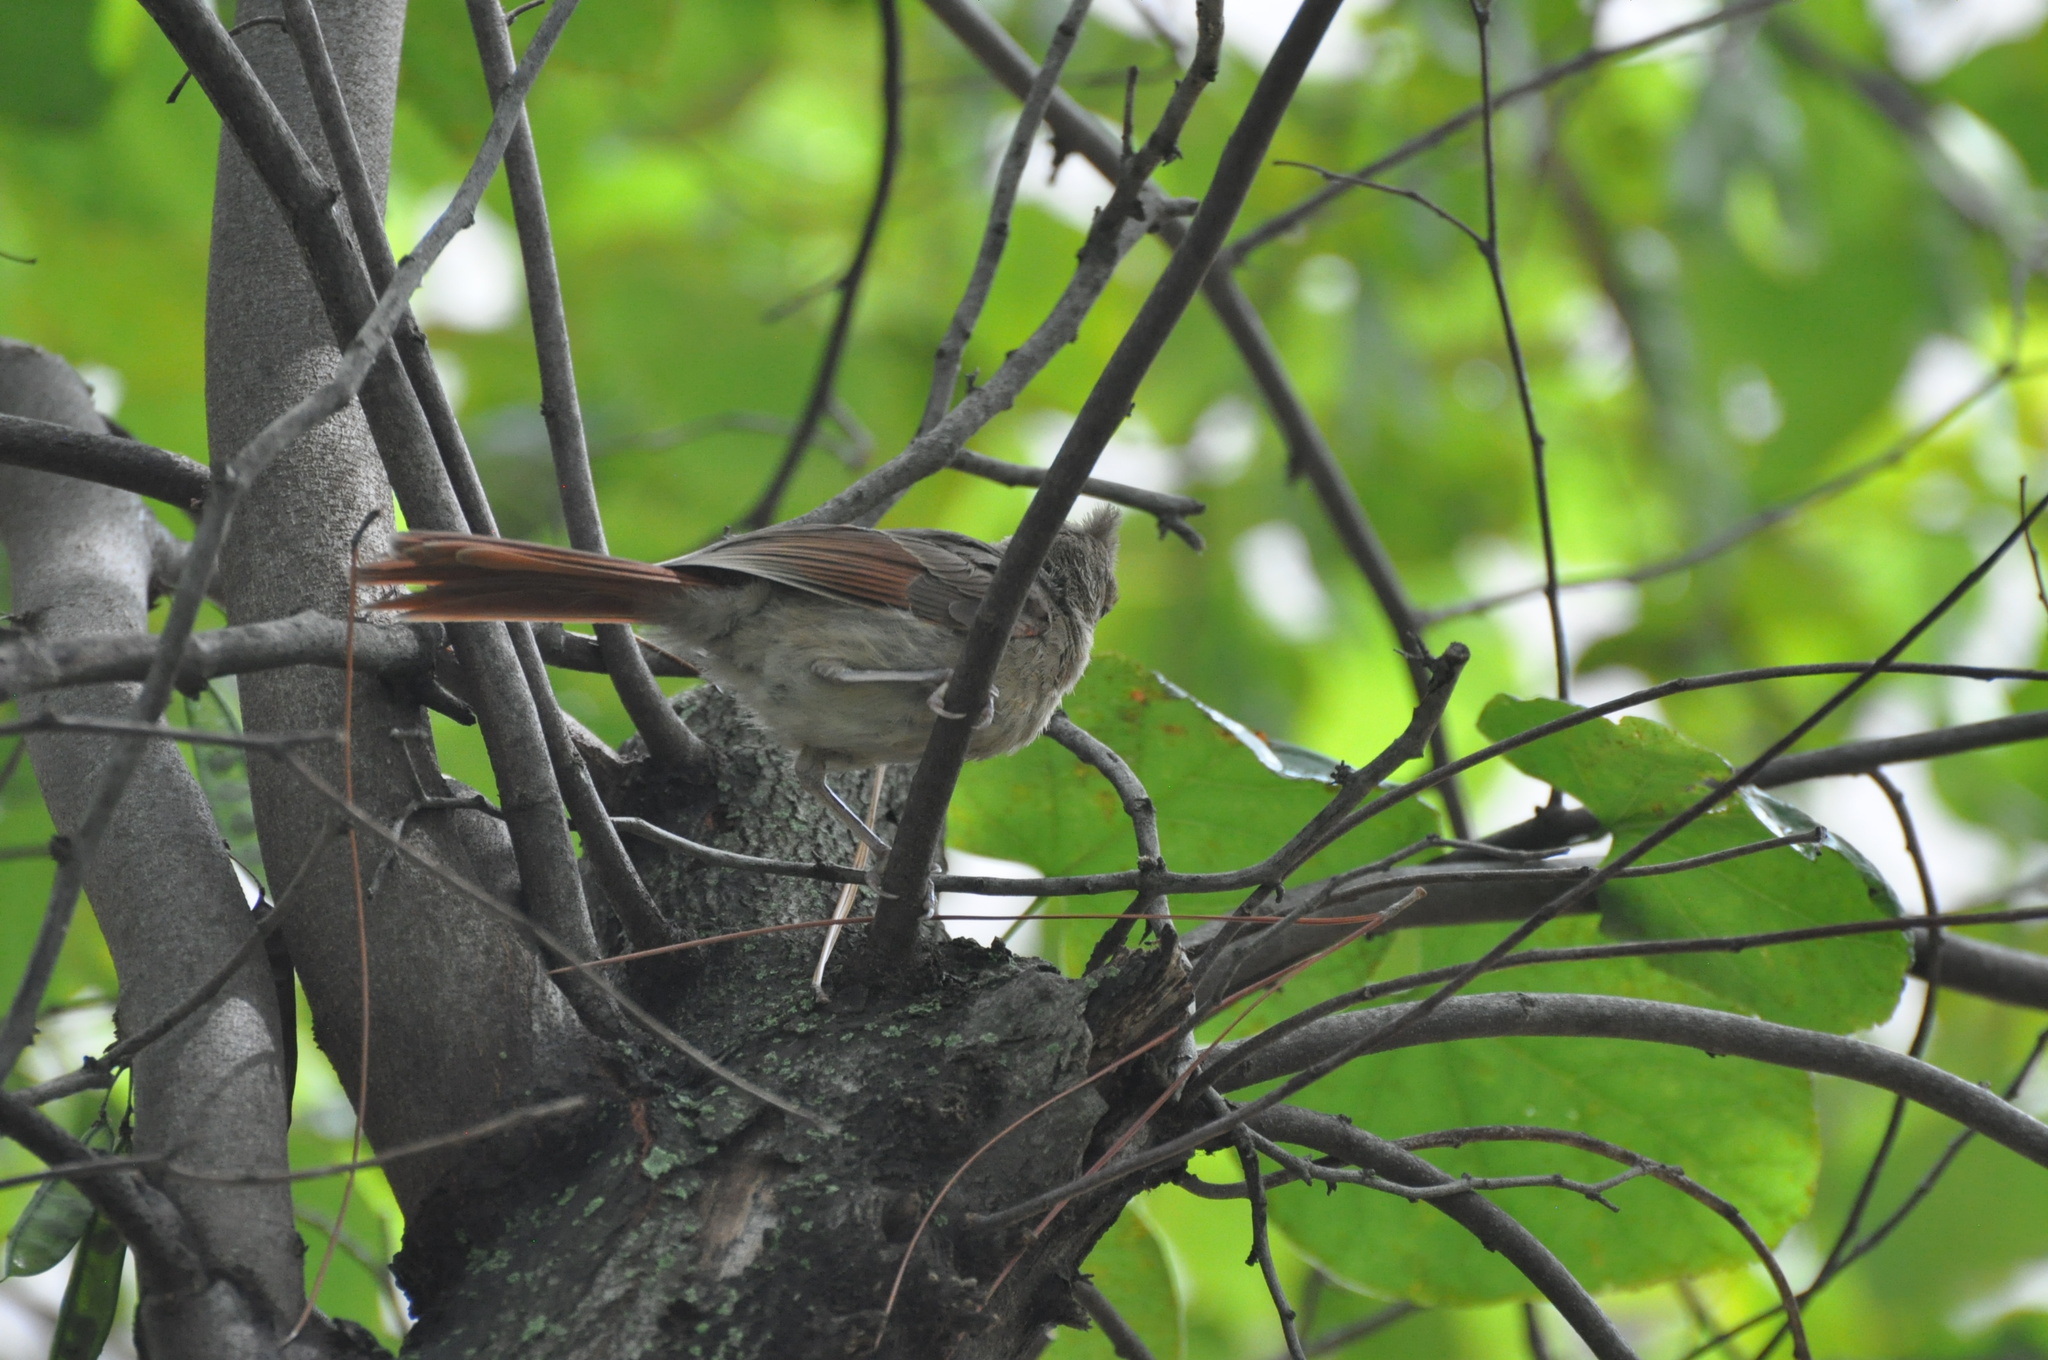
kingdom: Animalia
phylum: Chordata
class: Aves
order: Passeriformes
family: Cardinalidae
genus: Cardinalis
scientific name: Cardinalis cardinalis
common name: Northern cardinal
